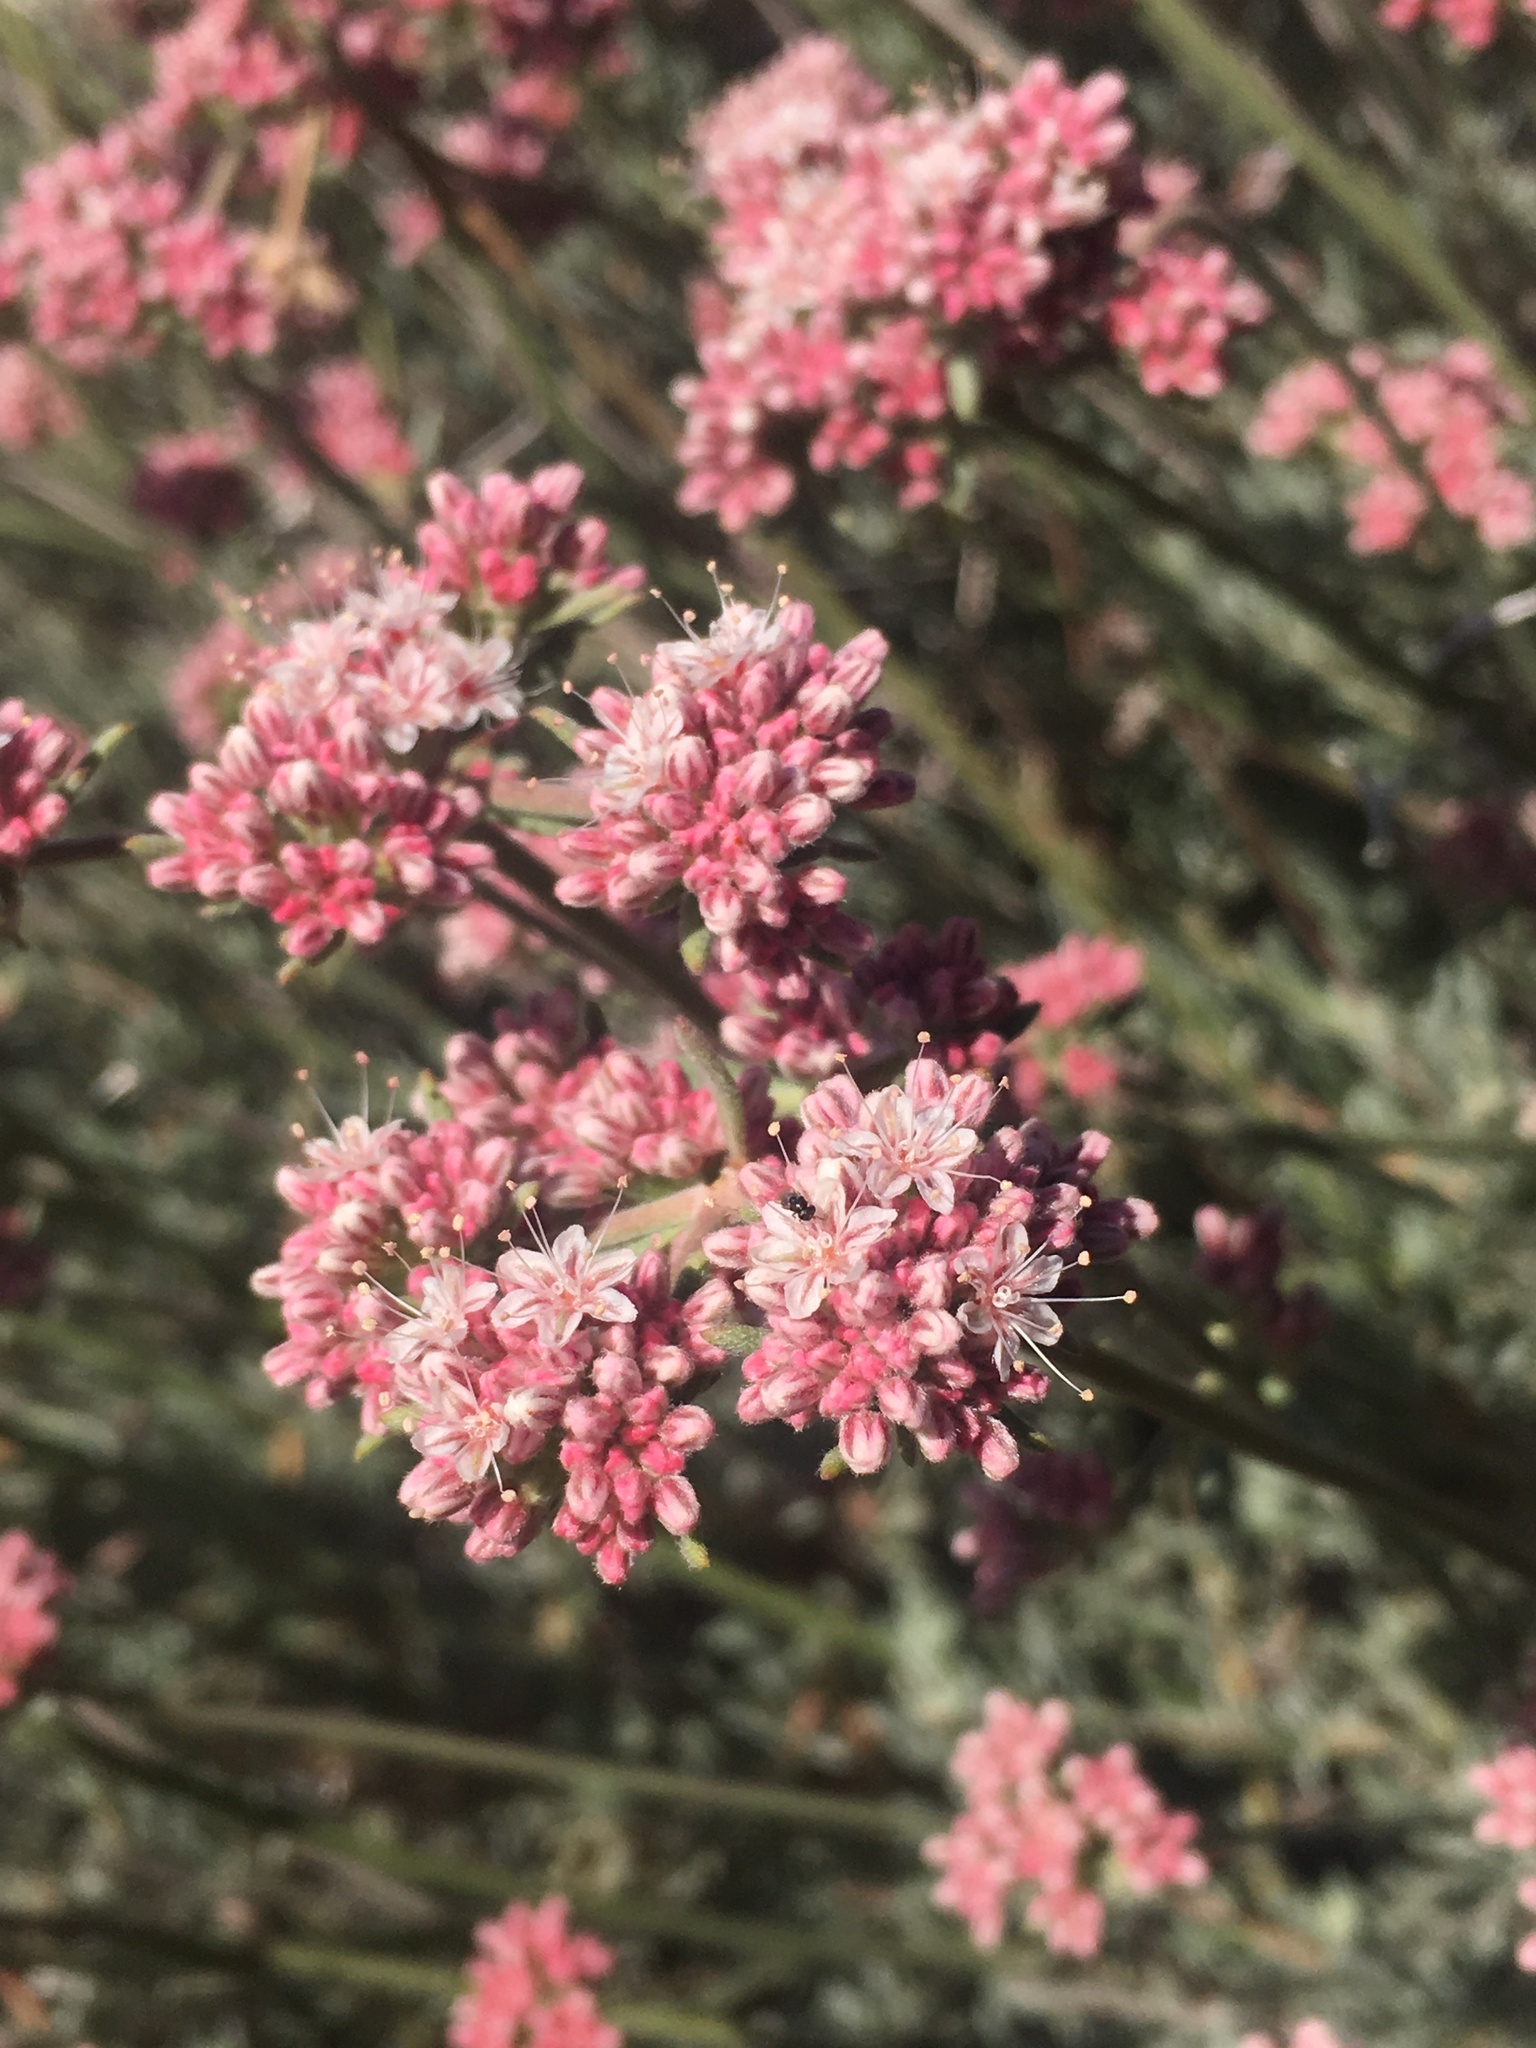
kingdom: Plantae
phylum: Tracheophyta
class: Magnoliopsida
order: Caryophyllales
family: Polygonaceae
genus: Eriogonum
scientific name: Eriogonum fasciculatum
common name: California wild buckwheat
